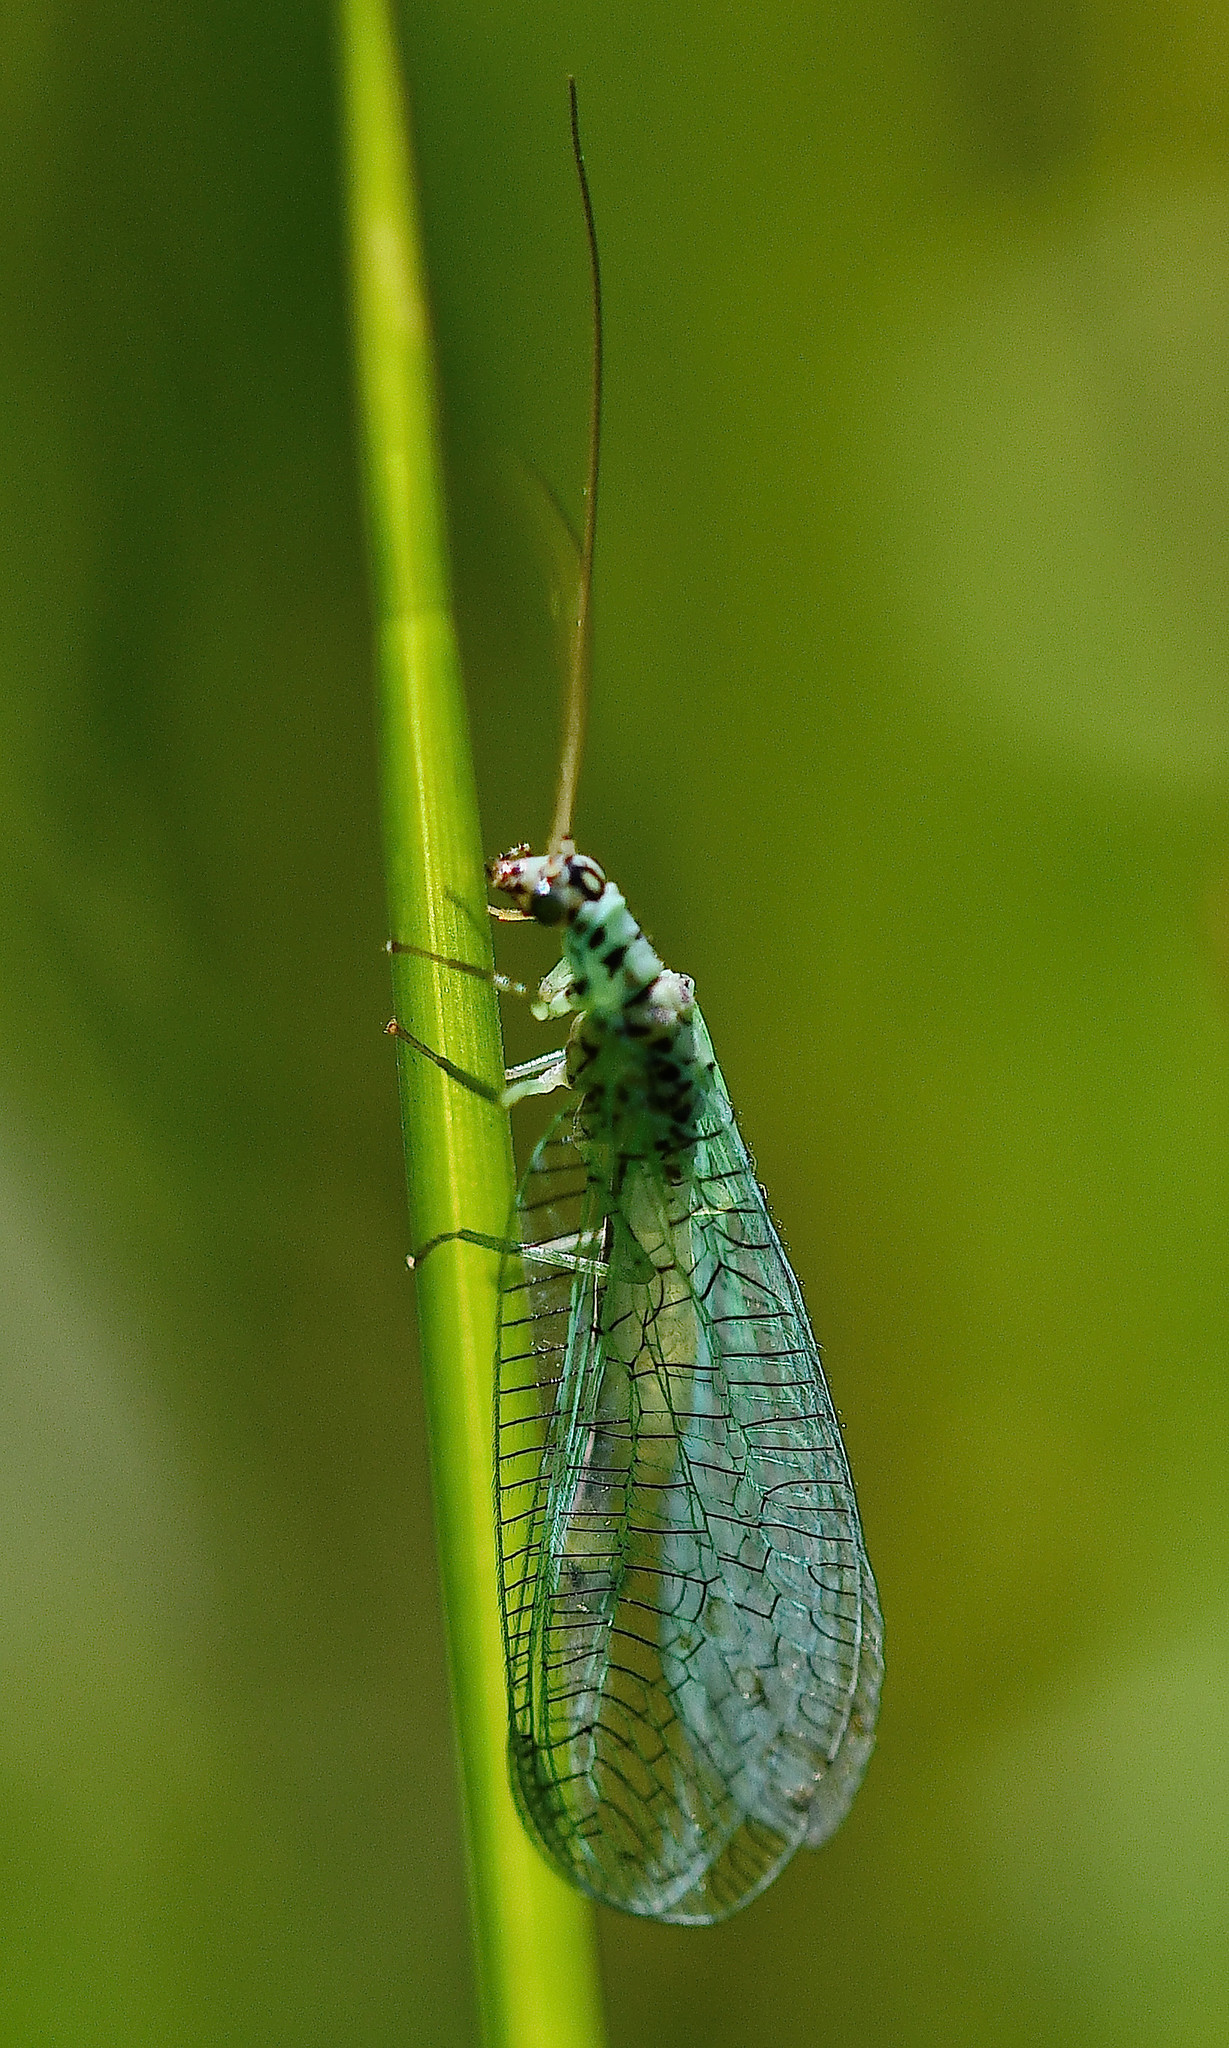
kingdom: Animalia
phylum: Arthropoda
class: Insecta
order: Neuroptera
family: Chrysopidae
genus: Chrysopa
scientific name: Chrysopa perla
